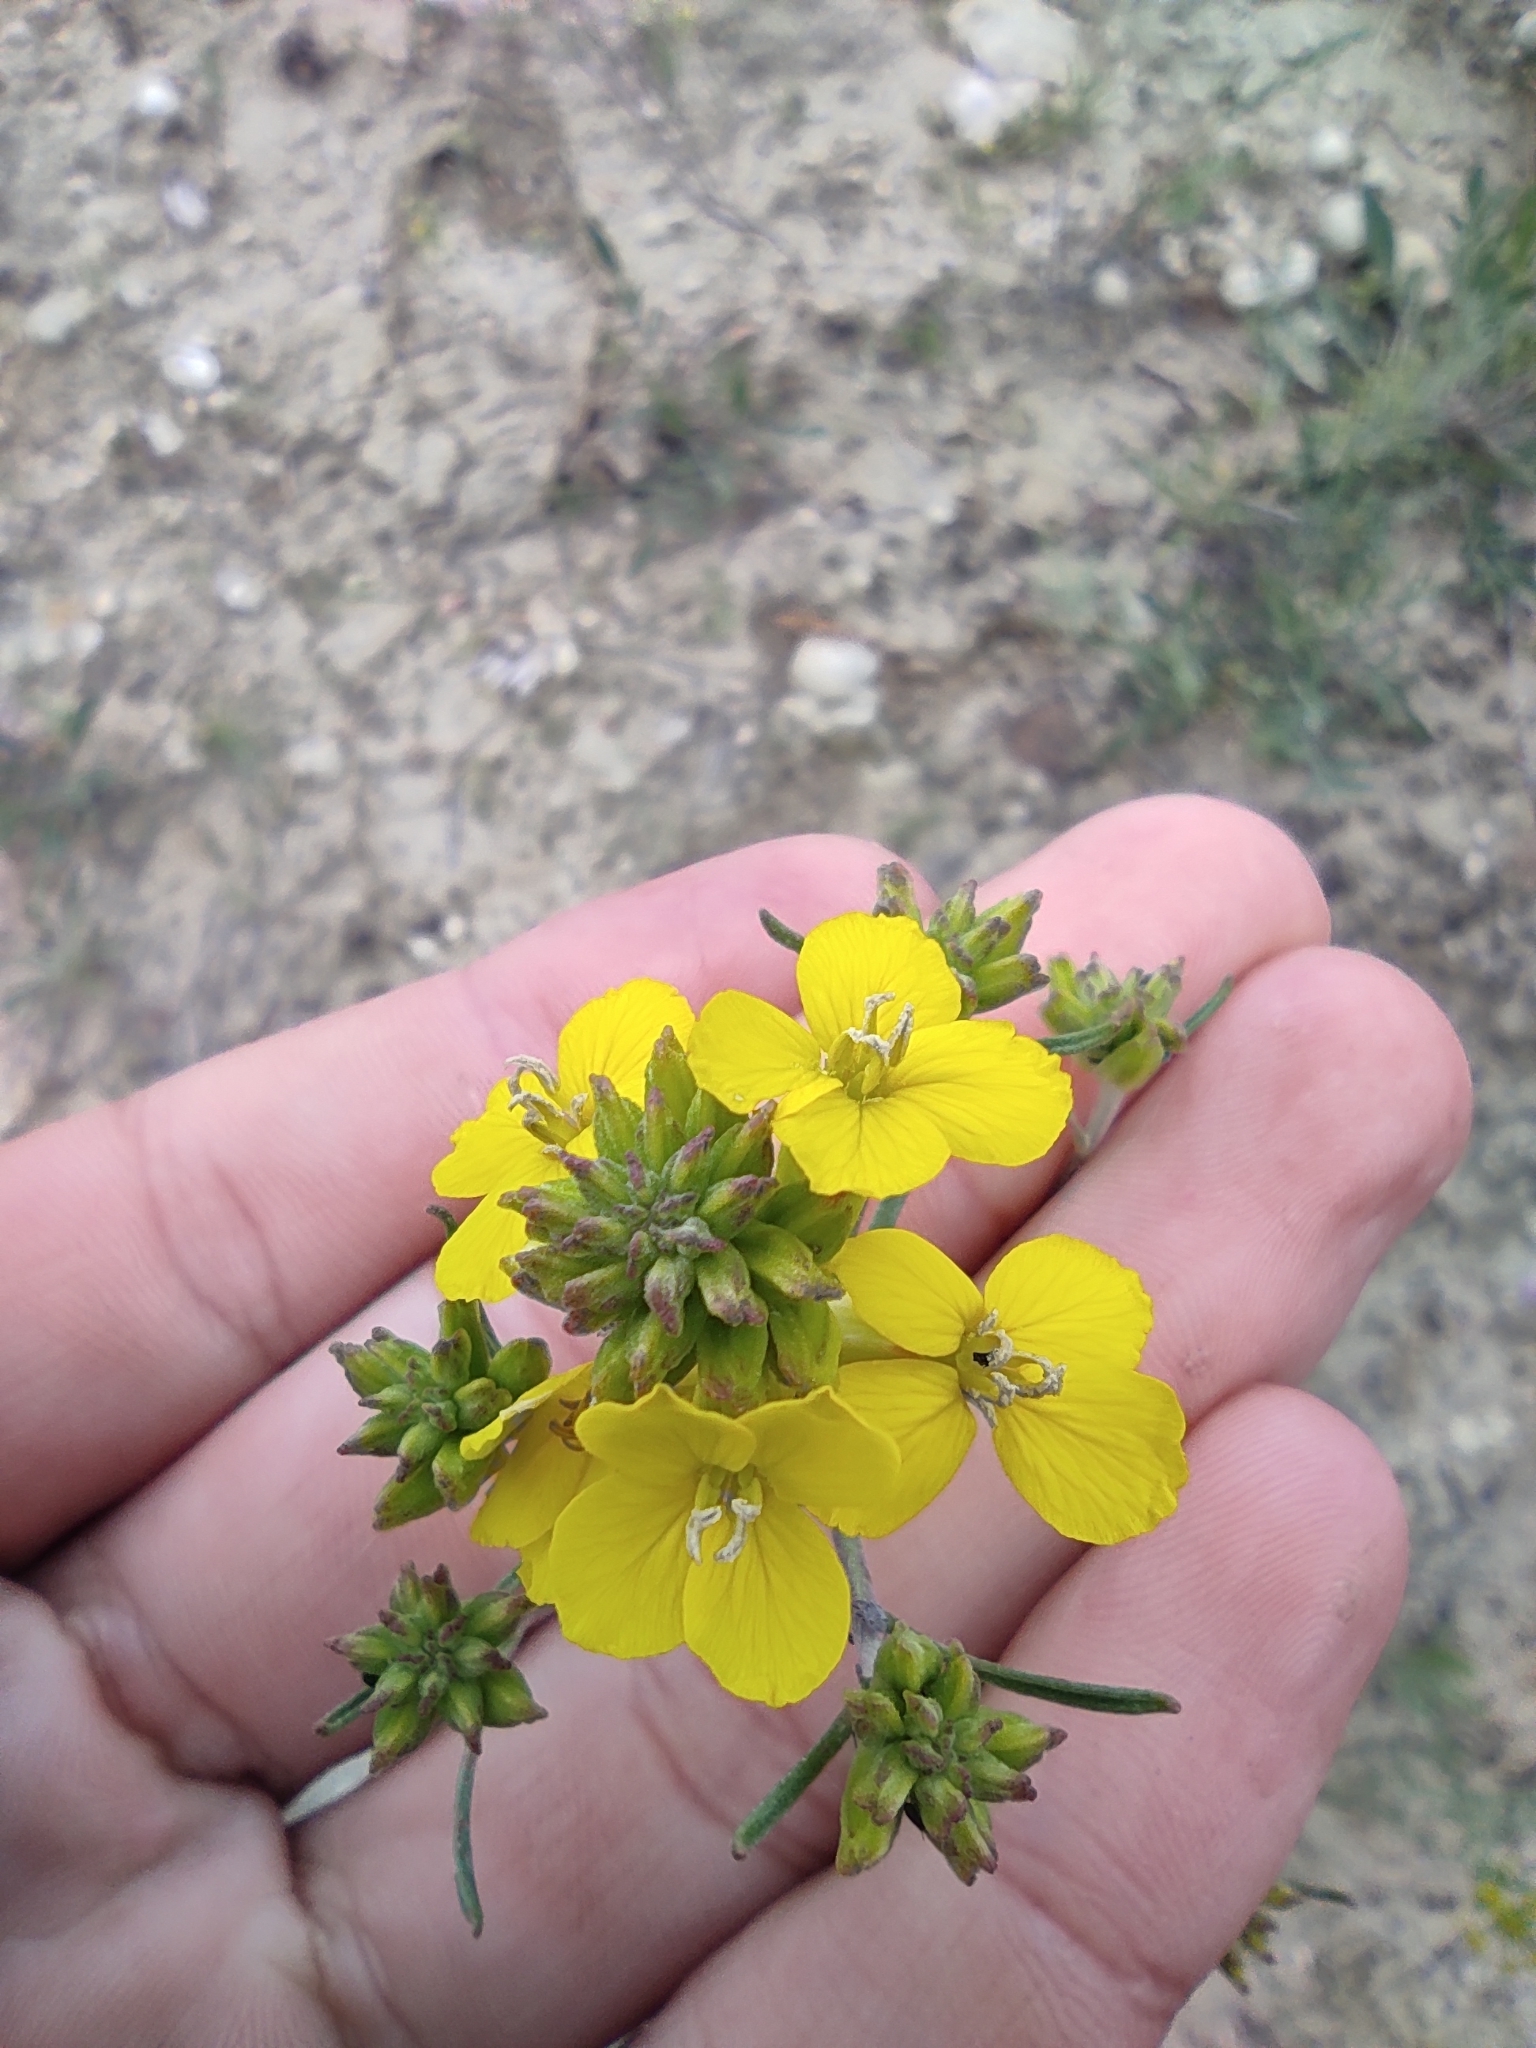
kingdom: Plantae
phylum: Tracheophyta
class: Magnoliopsida
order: Brassicales
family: Brassicaceae
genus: Erysimum
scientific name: Erysimum ucranicum
